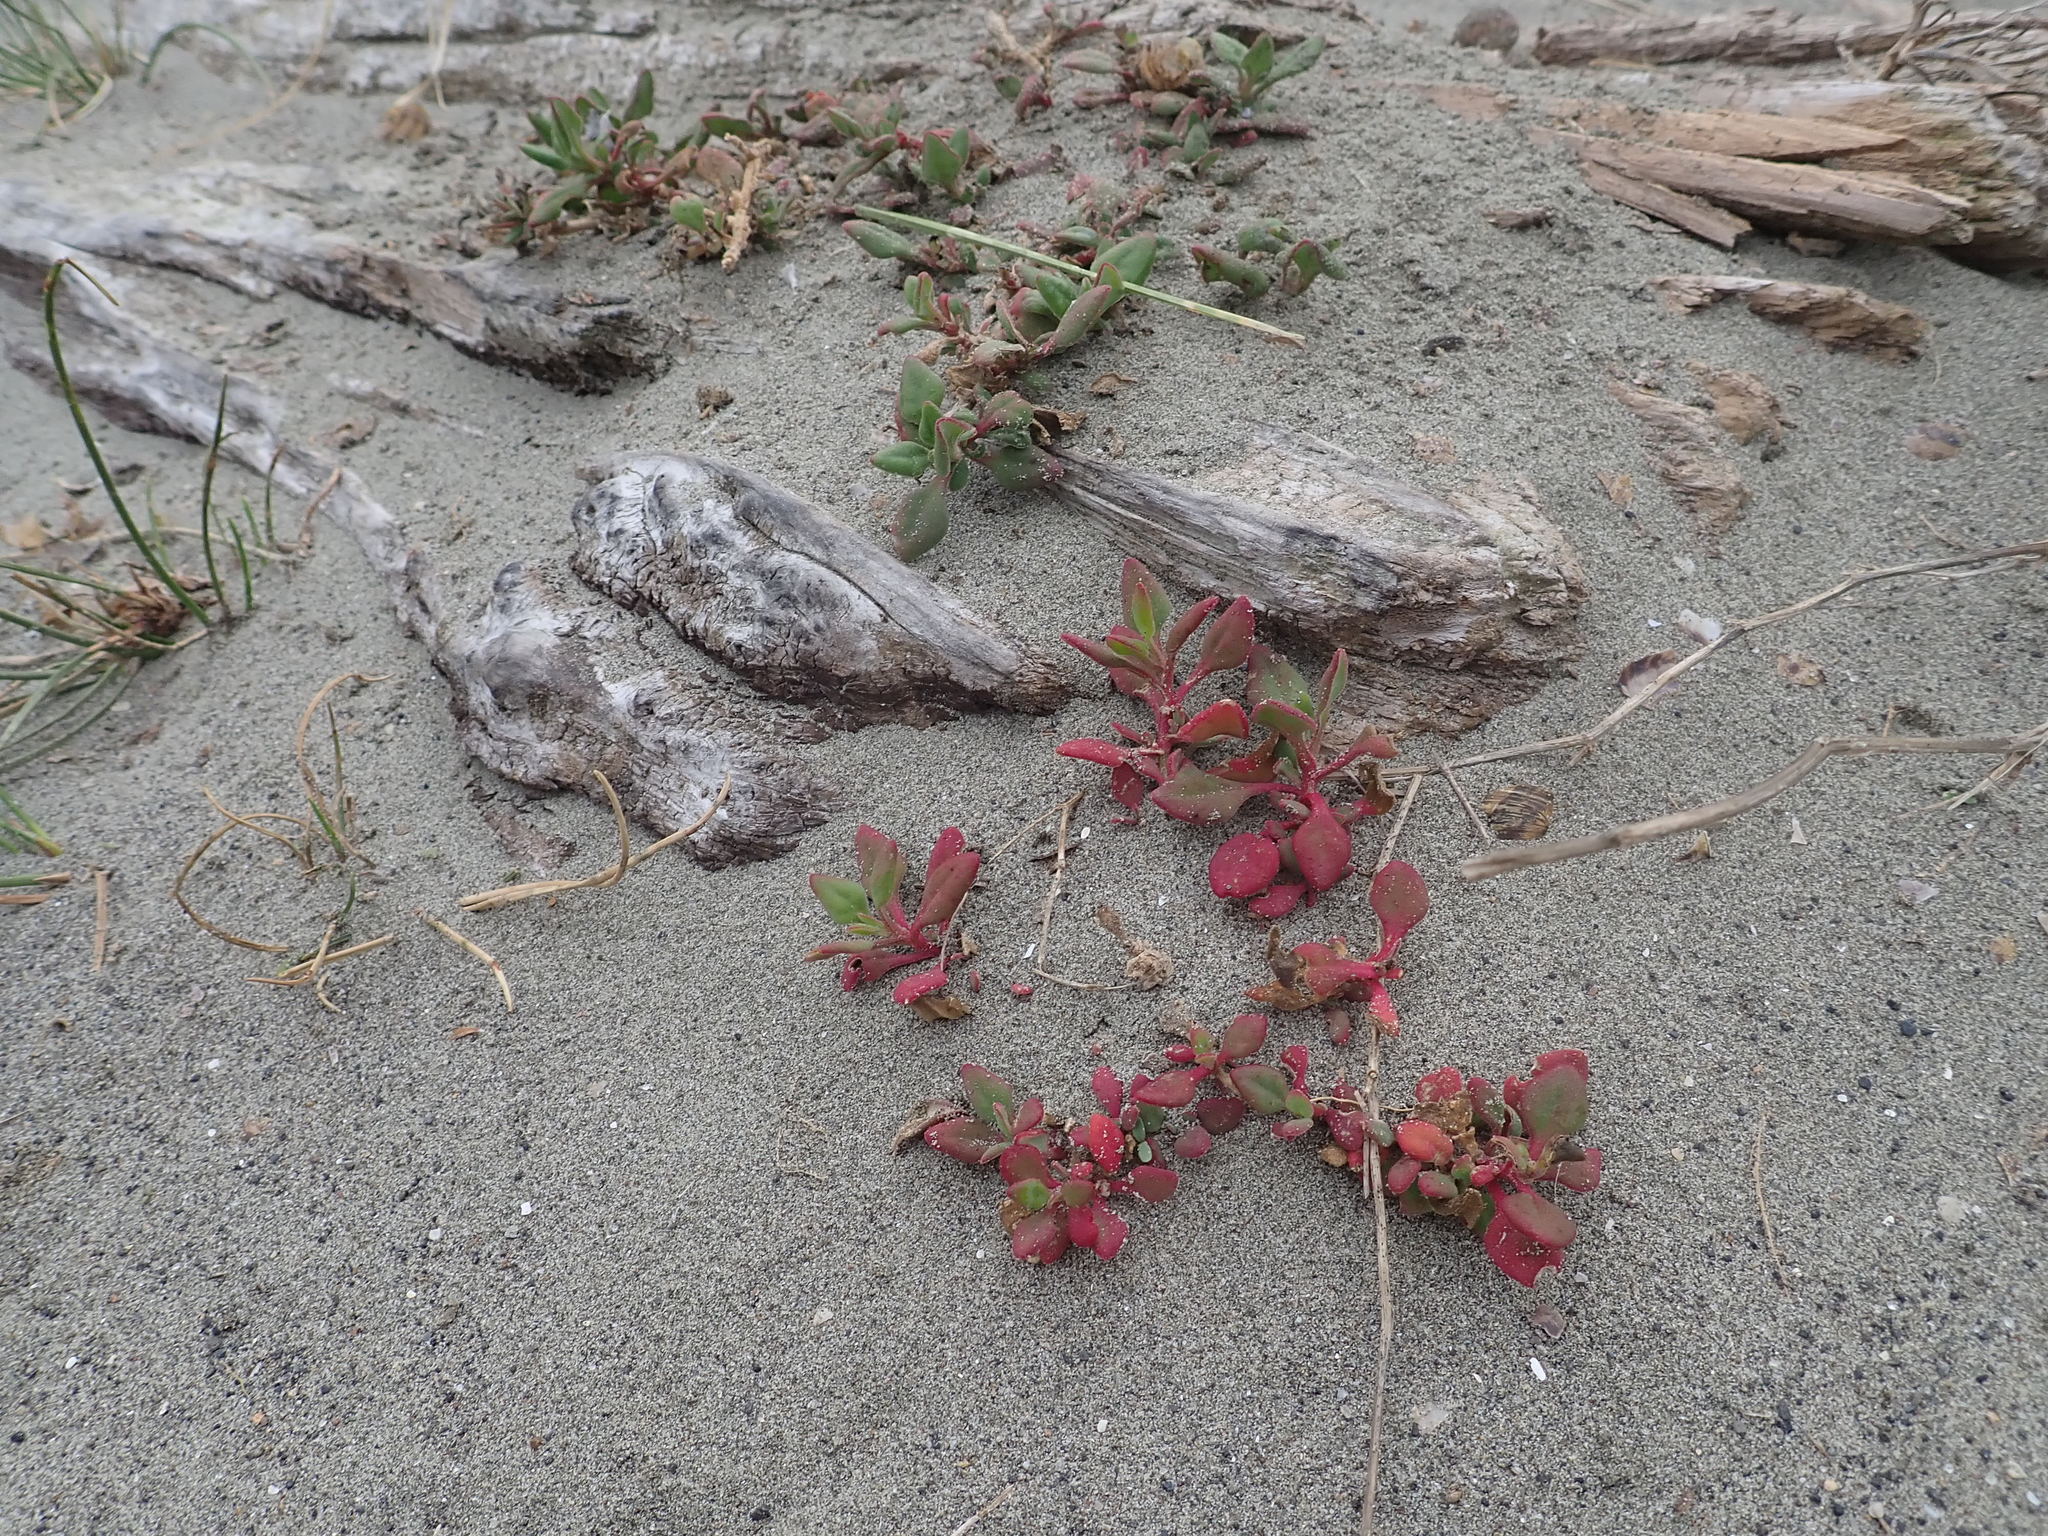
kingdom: Plantae
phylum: Tracheophyta
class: Magnoliopsida
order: Caryophyllales
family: Aizoaceae
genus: Tetragonia
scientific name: Tetragonia implexicoma
